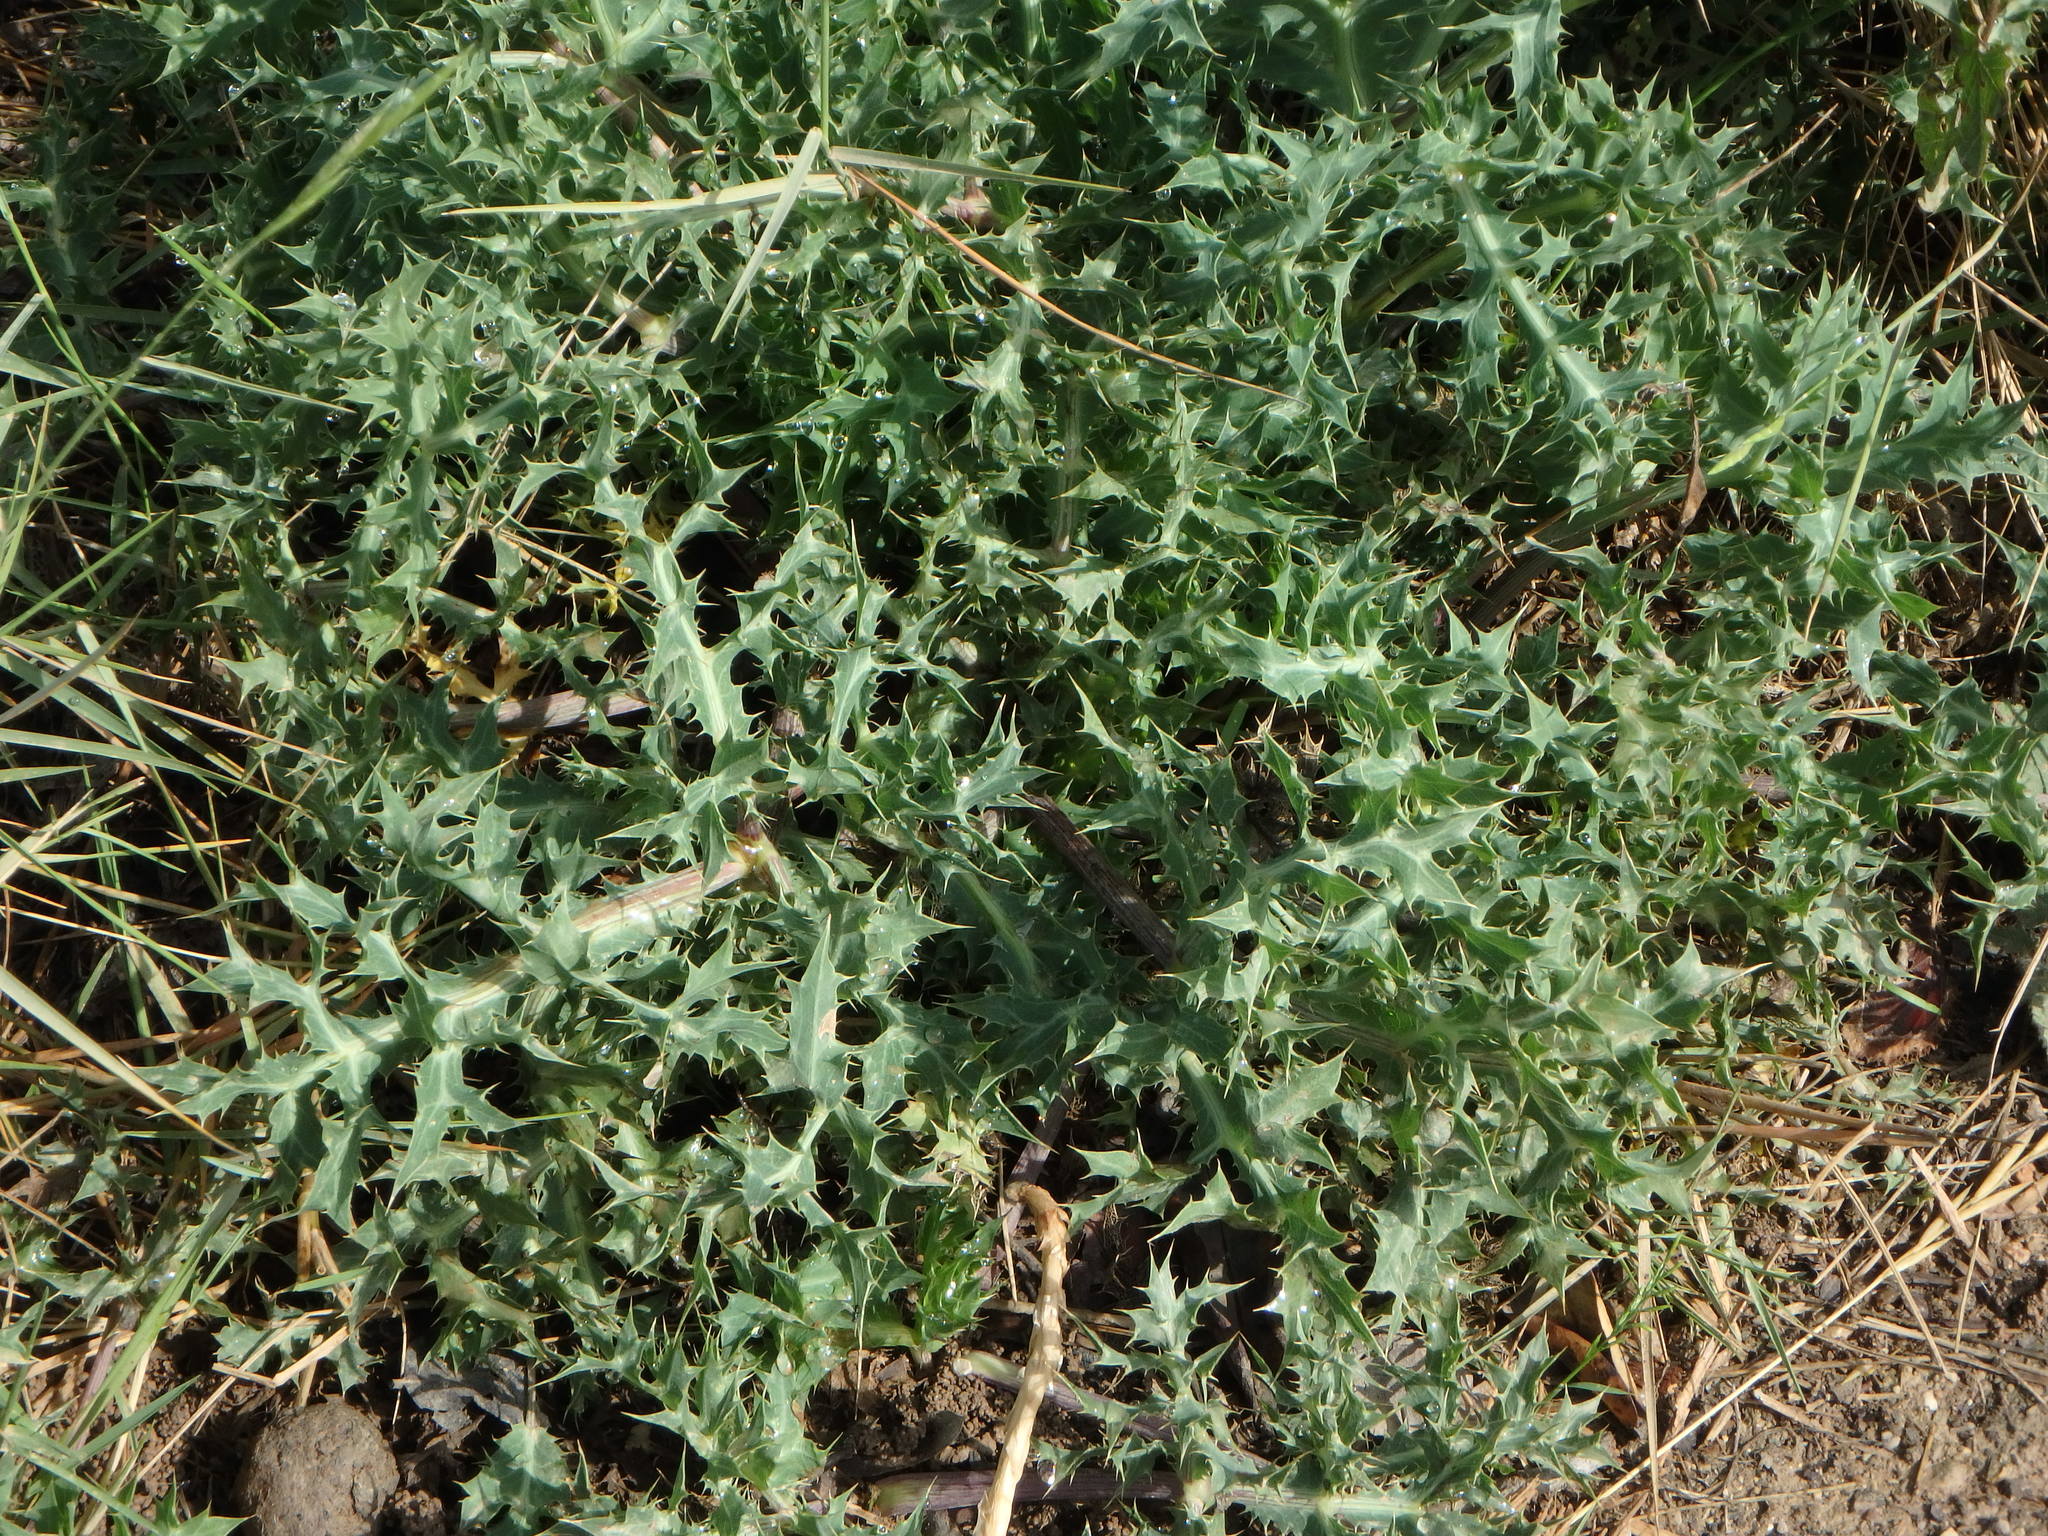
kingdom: Plantae
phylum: Tracheophyta
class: Magnoliopsida
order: Apiales
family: Apiaceae
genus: Eryngium
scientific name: Eryngium campestre
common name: Field eryngo
